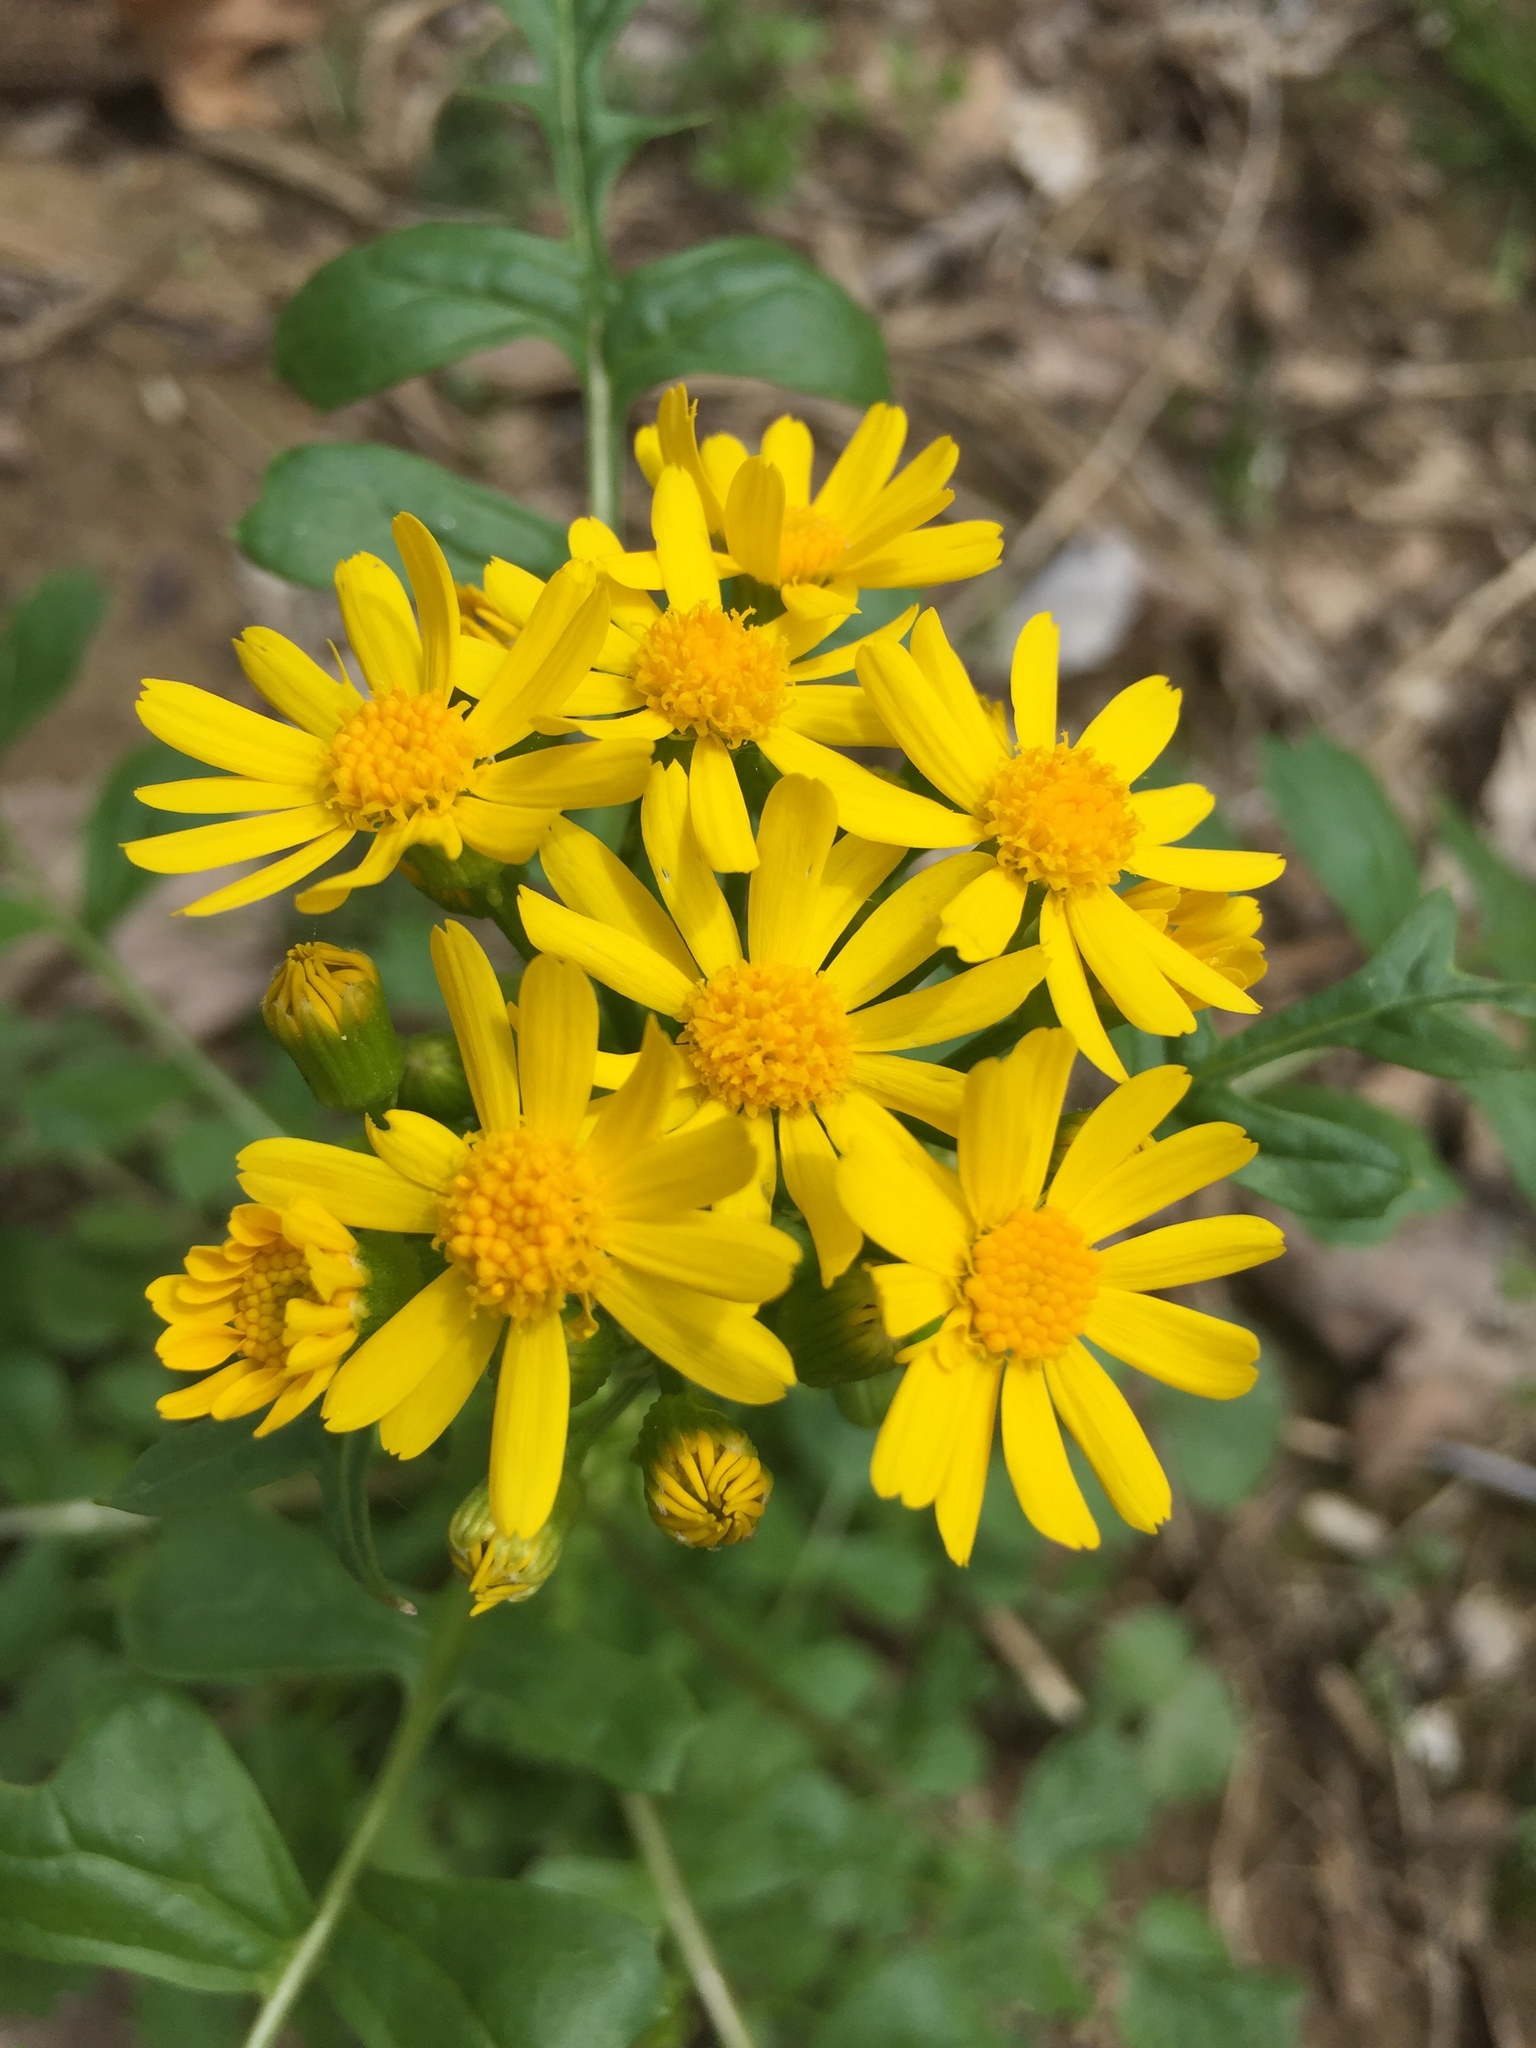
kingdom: Plantae
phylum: Tracheophyta
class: Magnoliopsida
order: Asterales
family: Asteraceae
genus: Packera
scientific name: Packera glabella
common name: Butterweed
